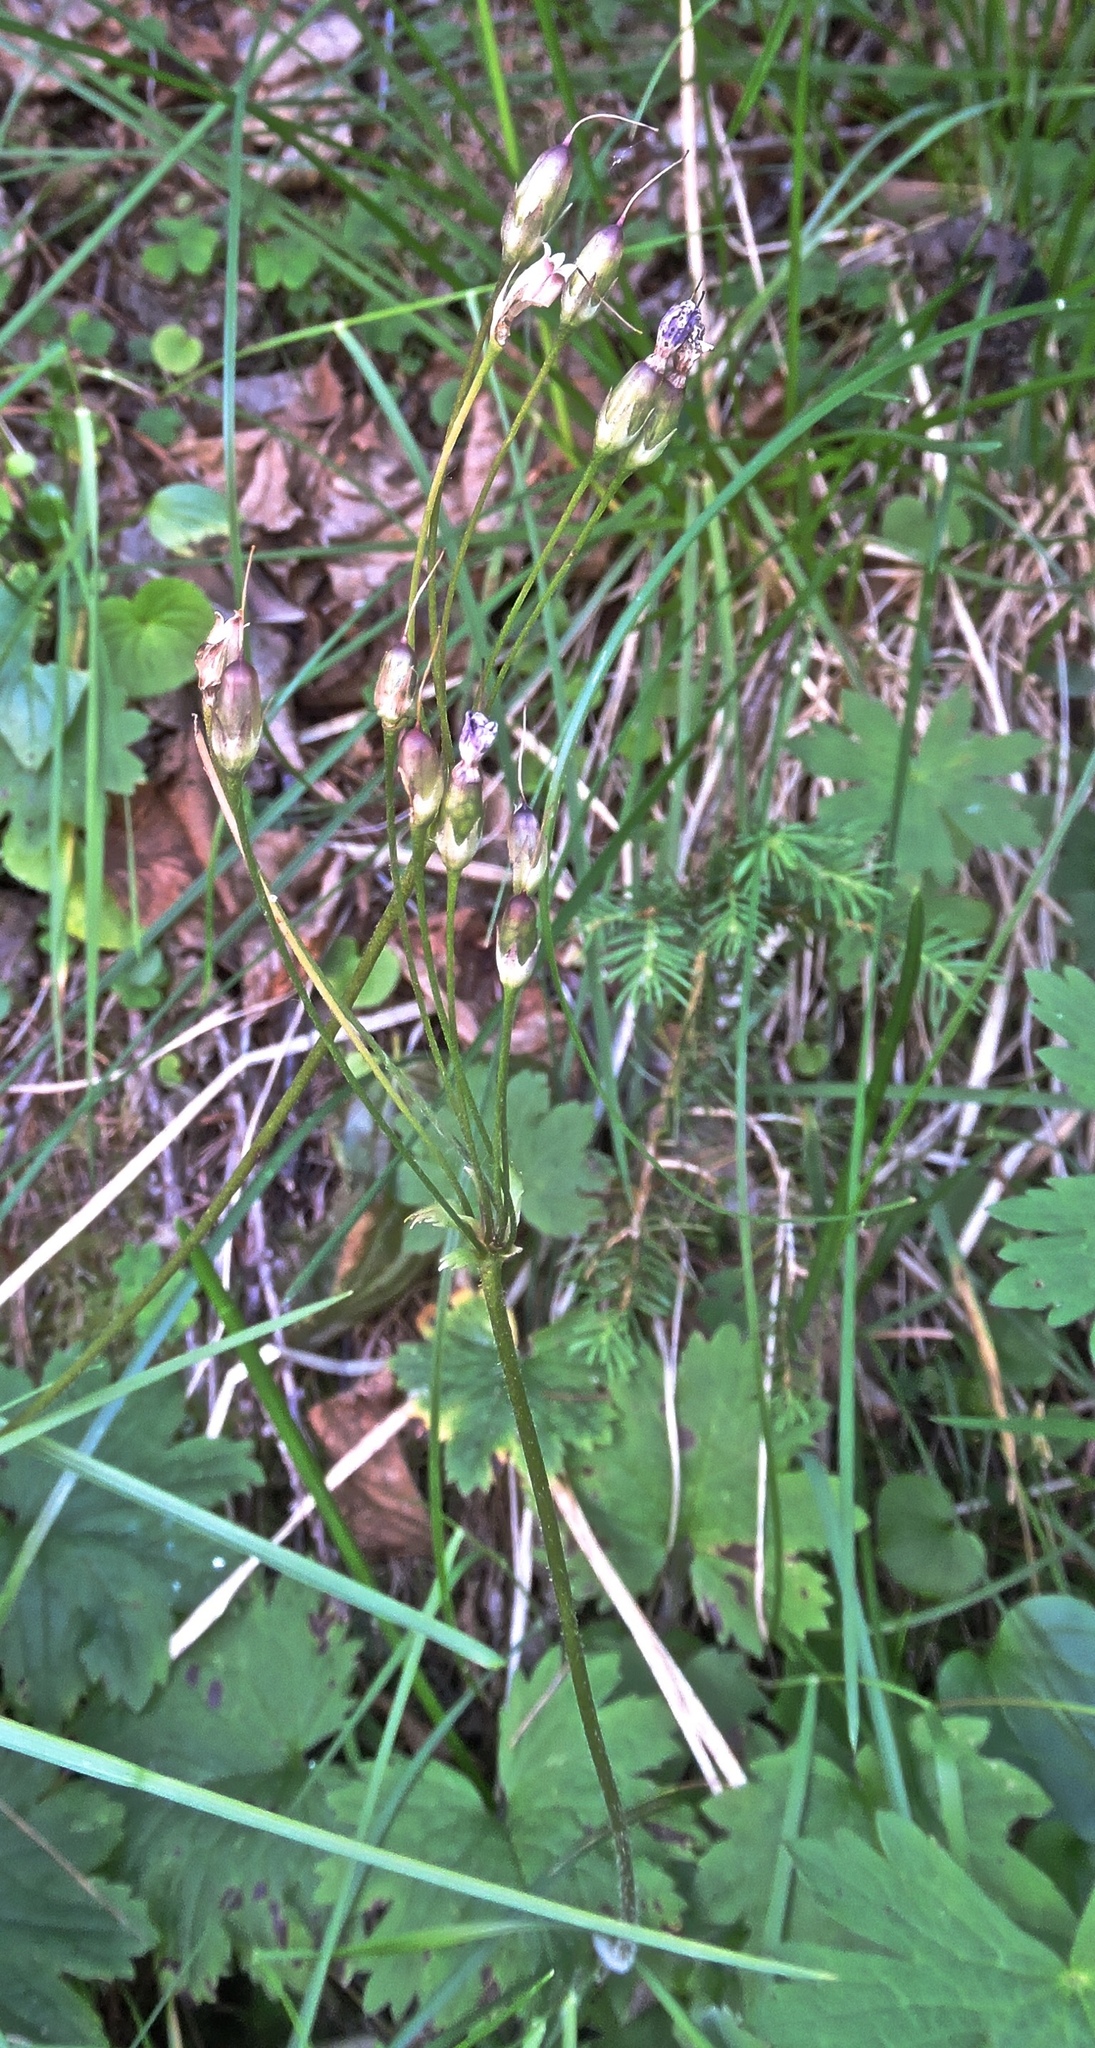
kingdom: Plantae
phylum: Tracheophyta
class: Magnoliopsida
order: Ericales
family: Primulaceae
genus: Primula
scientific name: Primula matthioli
